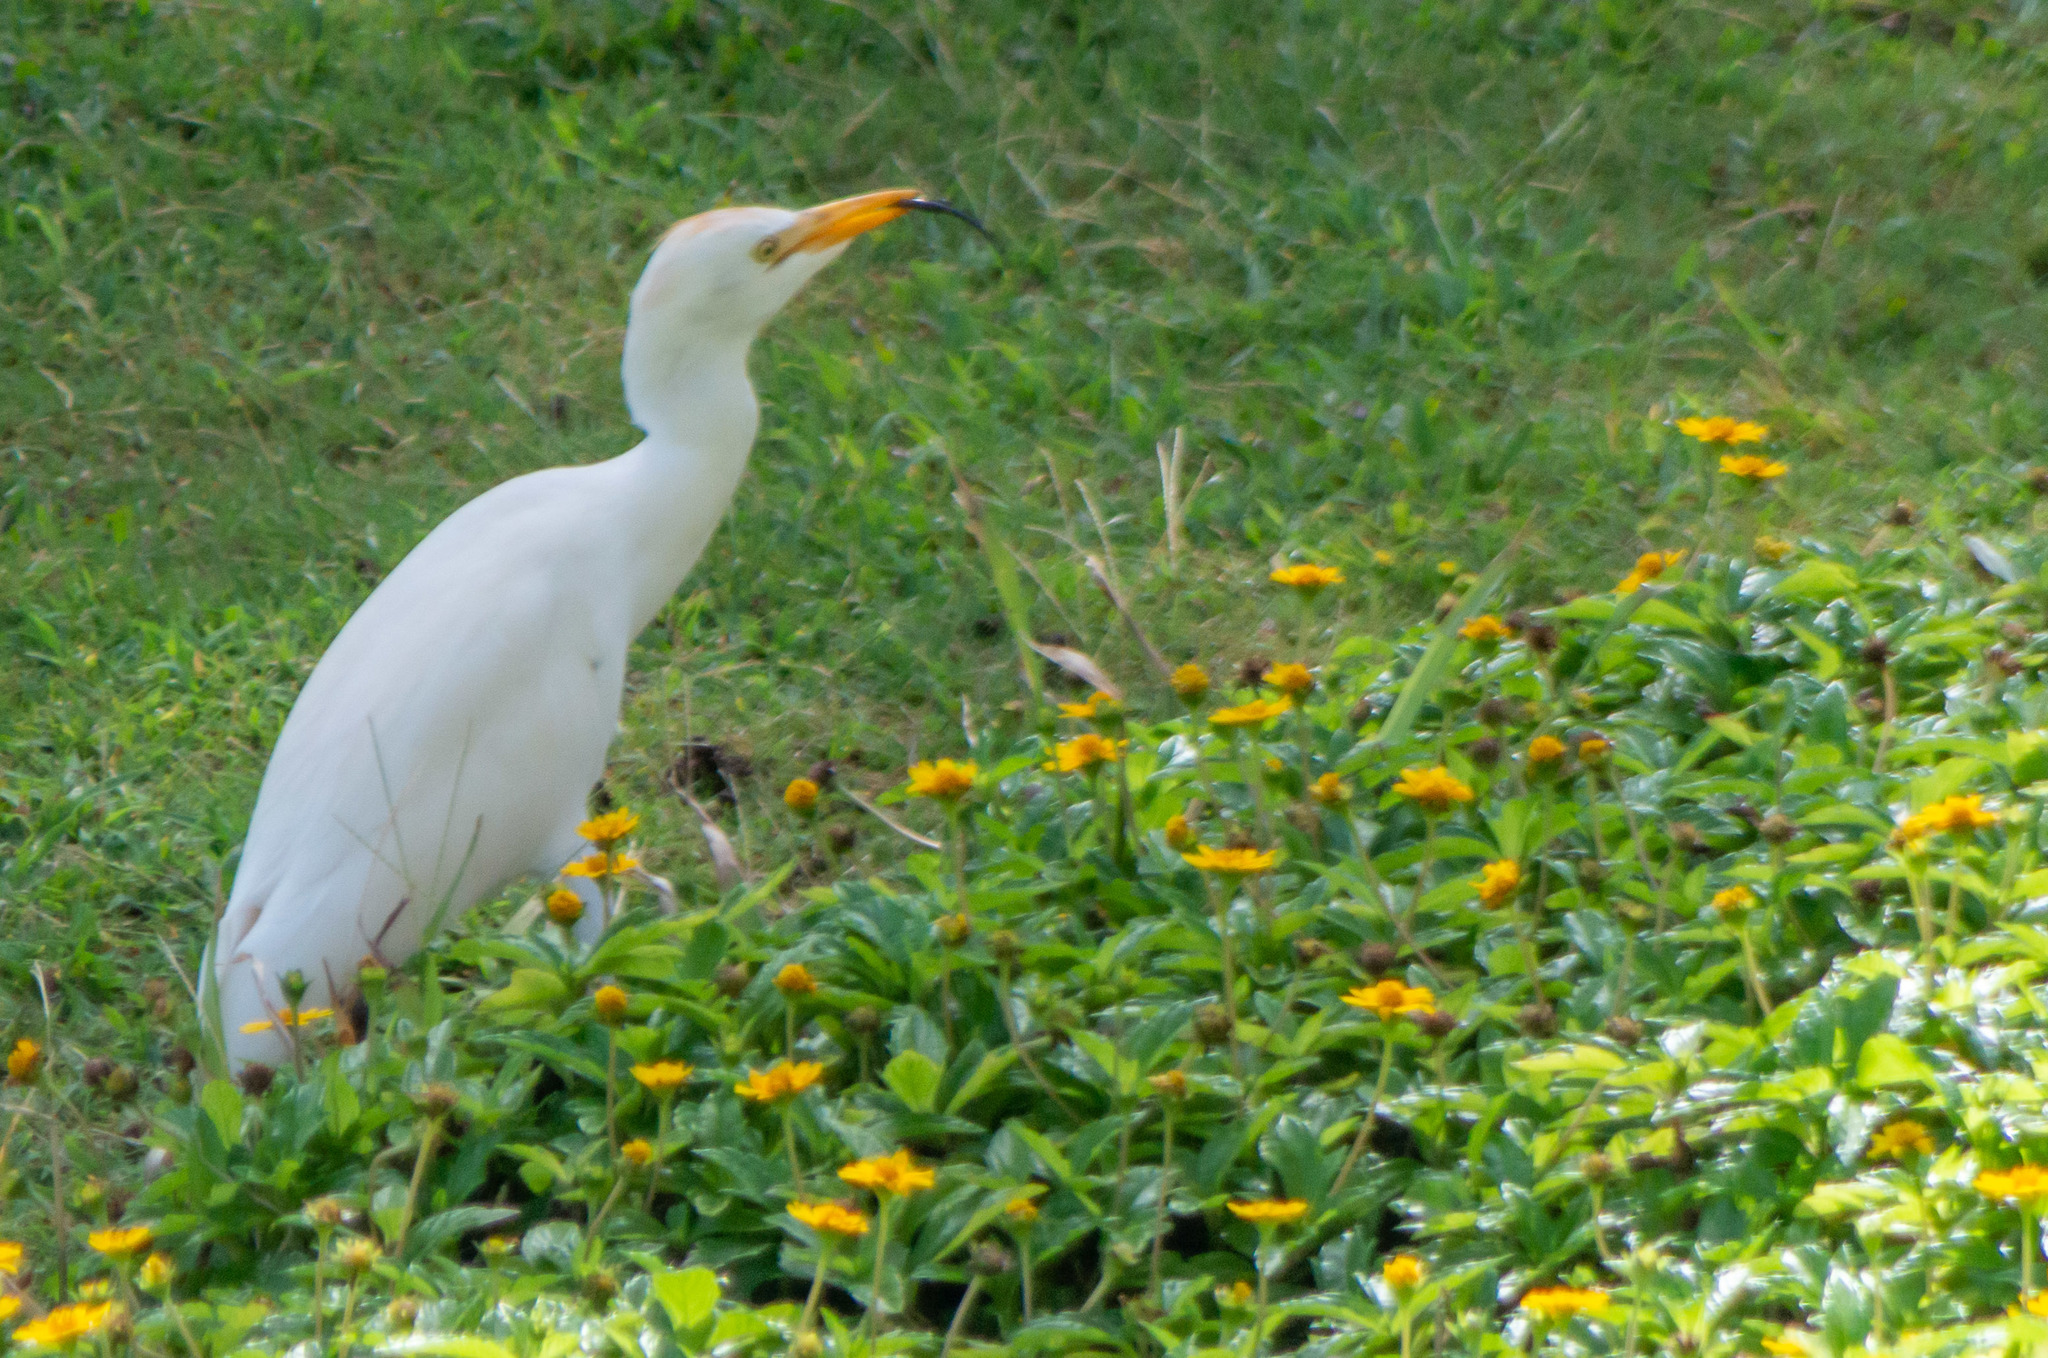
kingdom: Animalia
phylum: Chordata
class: Aves
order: Pelecaniformes
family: Ardeidae
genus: Bubulcus
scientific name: Bubulcus ibis
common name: Cattle egret
